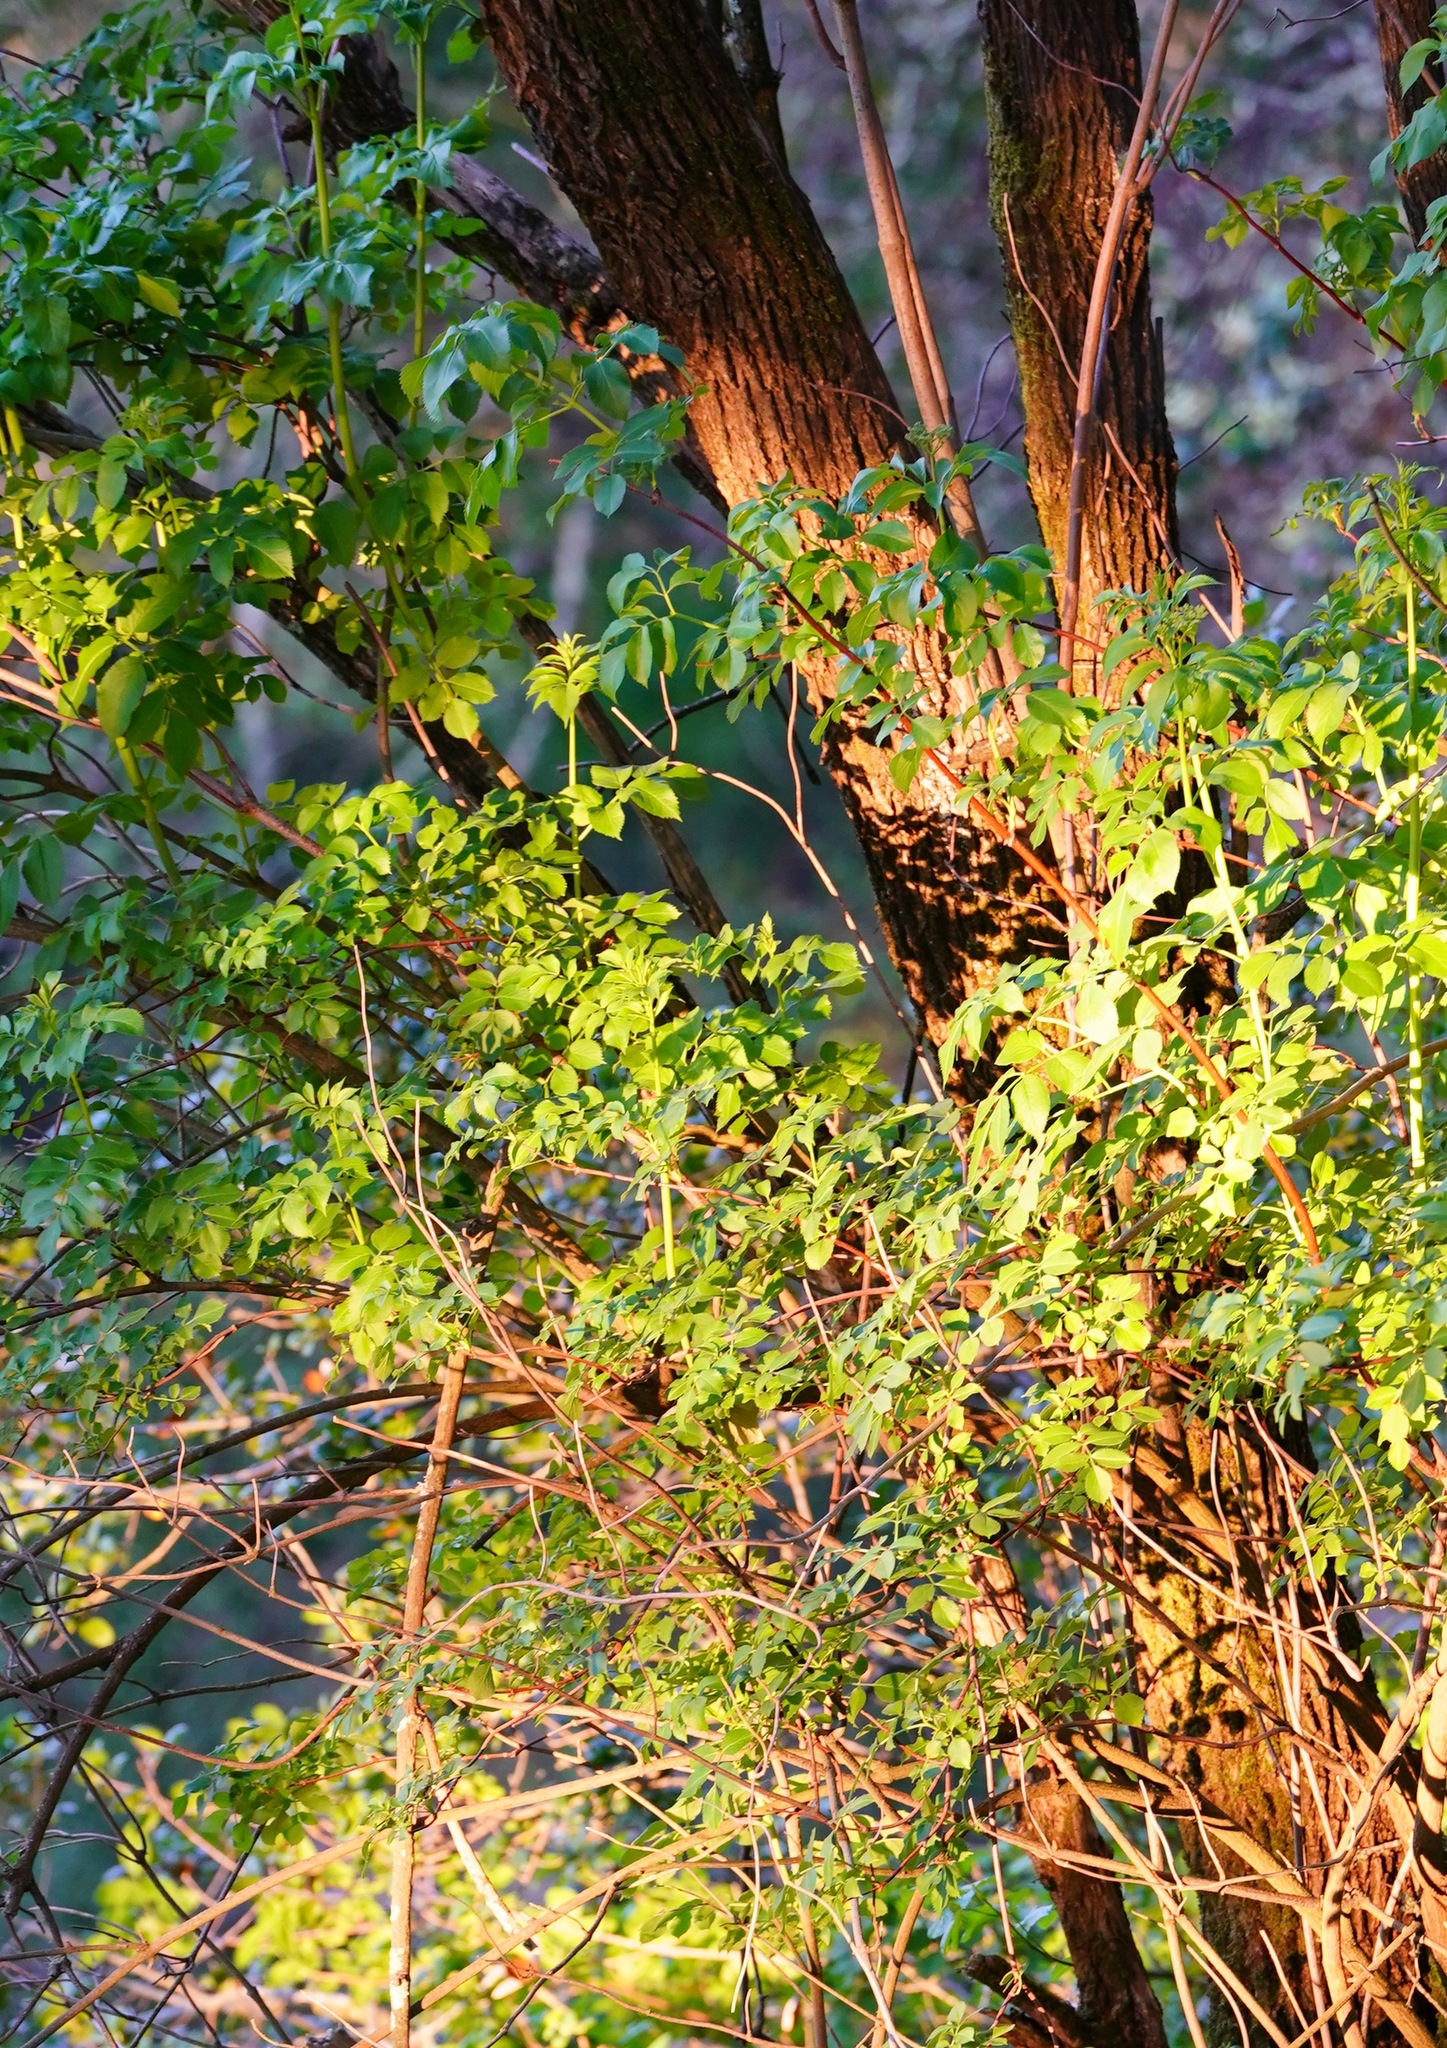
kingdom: Plantae
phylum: Tracheophyta
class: Magnoliopsida
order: Dipsacales
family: Viburnaceae
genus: Sambucus
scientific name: Sambucus cerulea
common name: Blue elder
